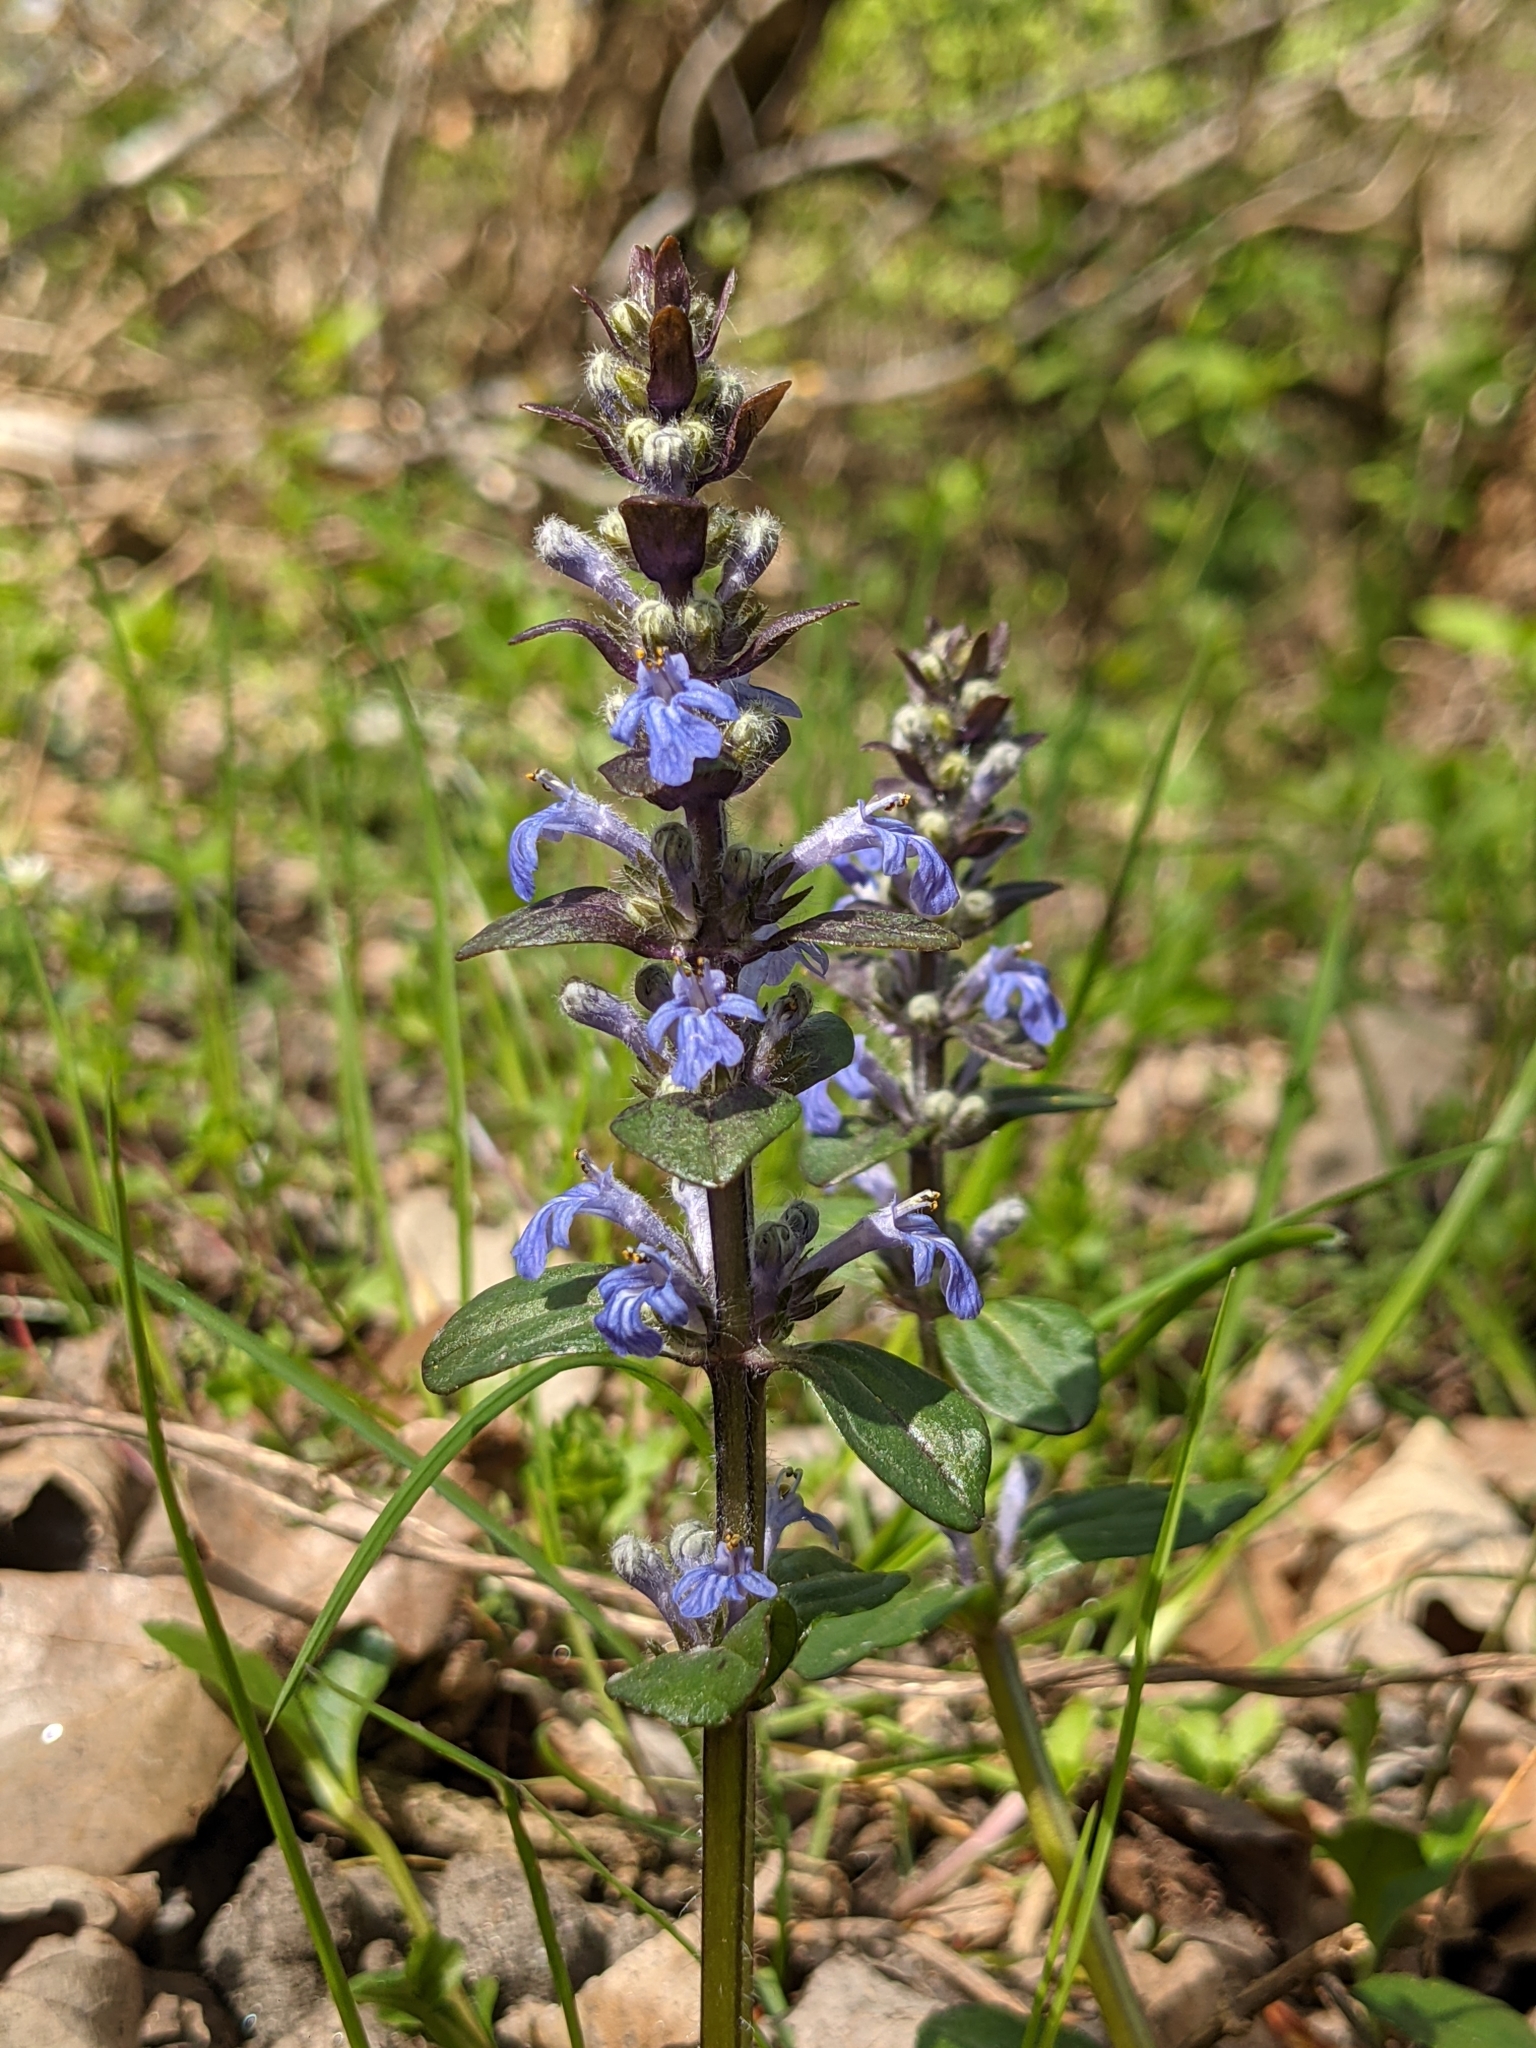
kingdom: Plantae
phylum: Tracheophyta
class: Magnoliopsida
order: Lamiales
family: Lamiaceae
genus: Ajuga
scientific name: Ajuga reptans
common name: Bugle
